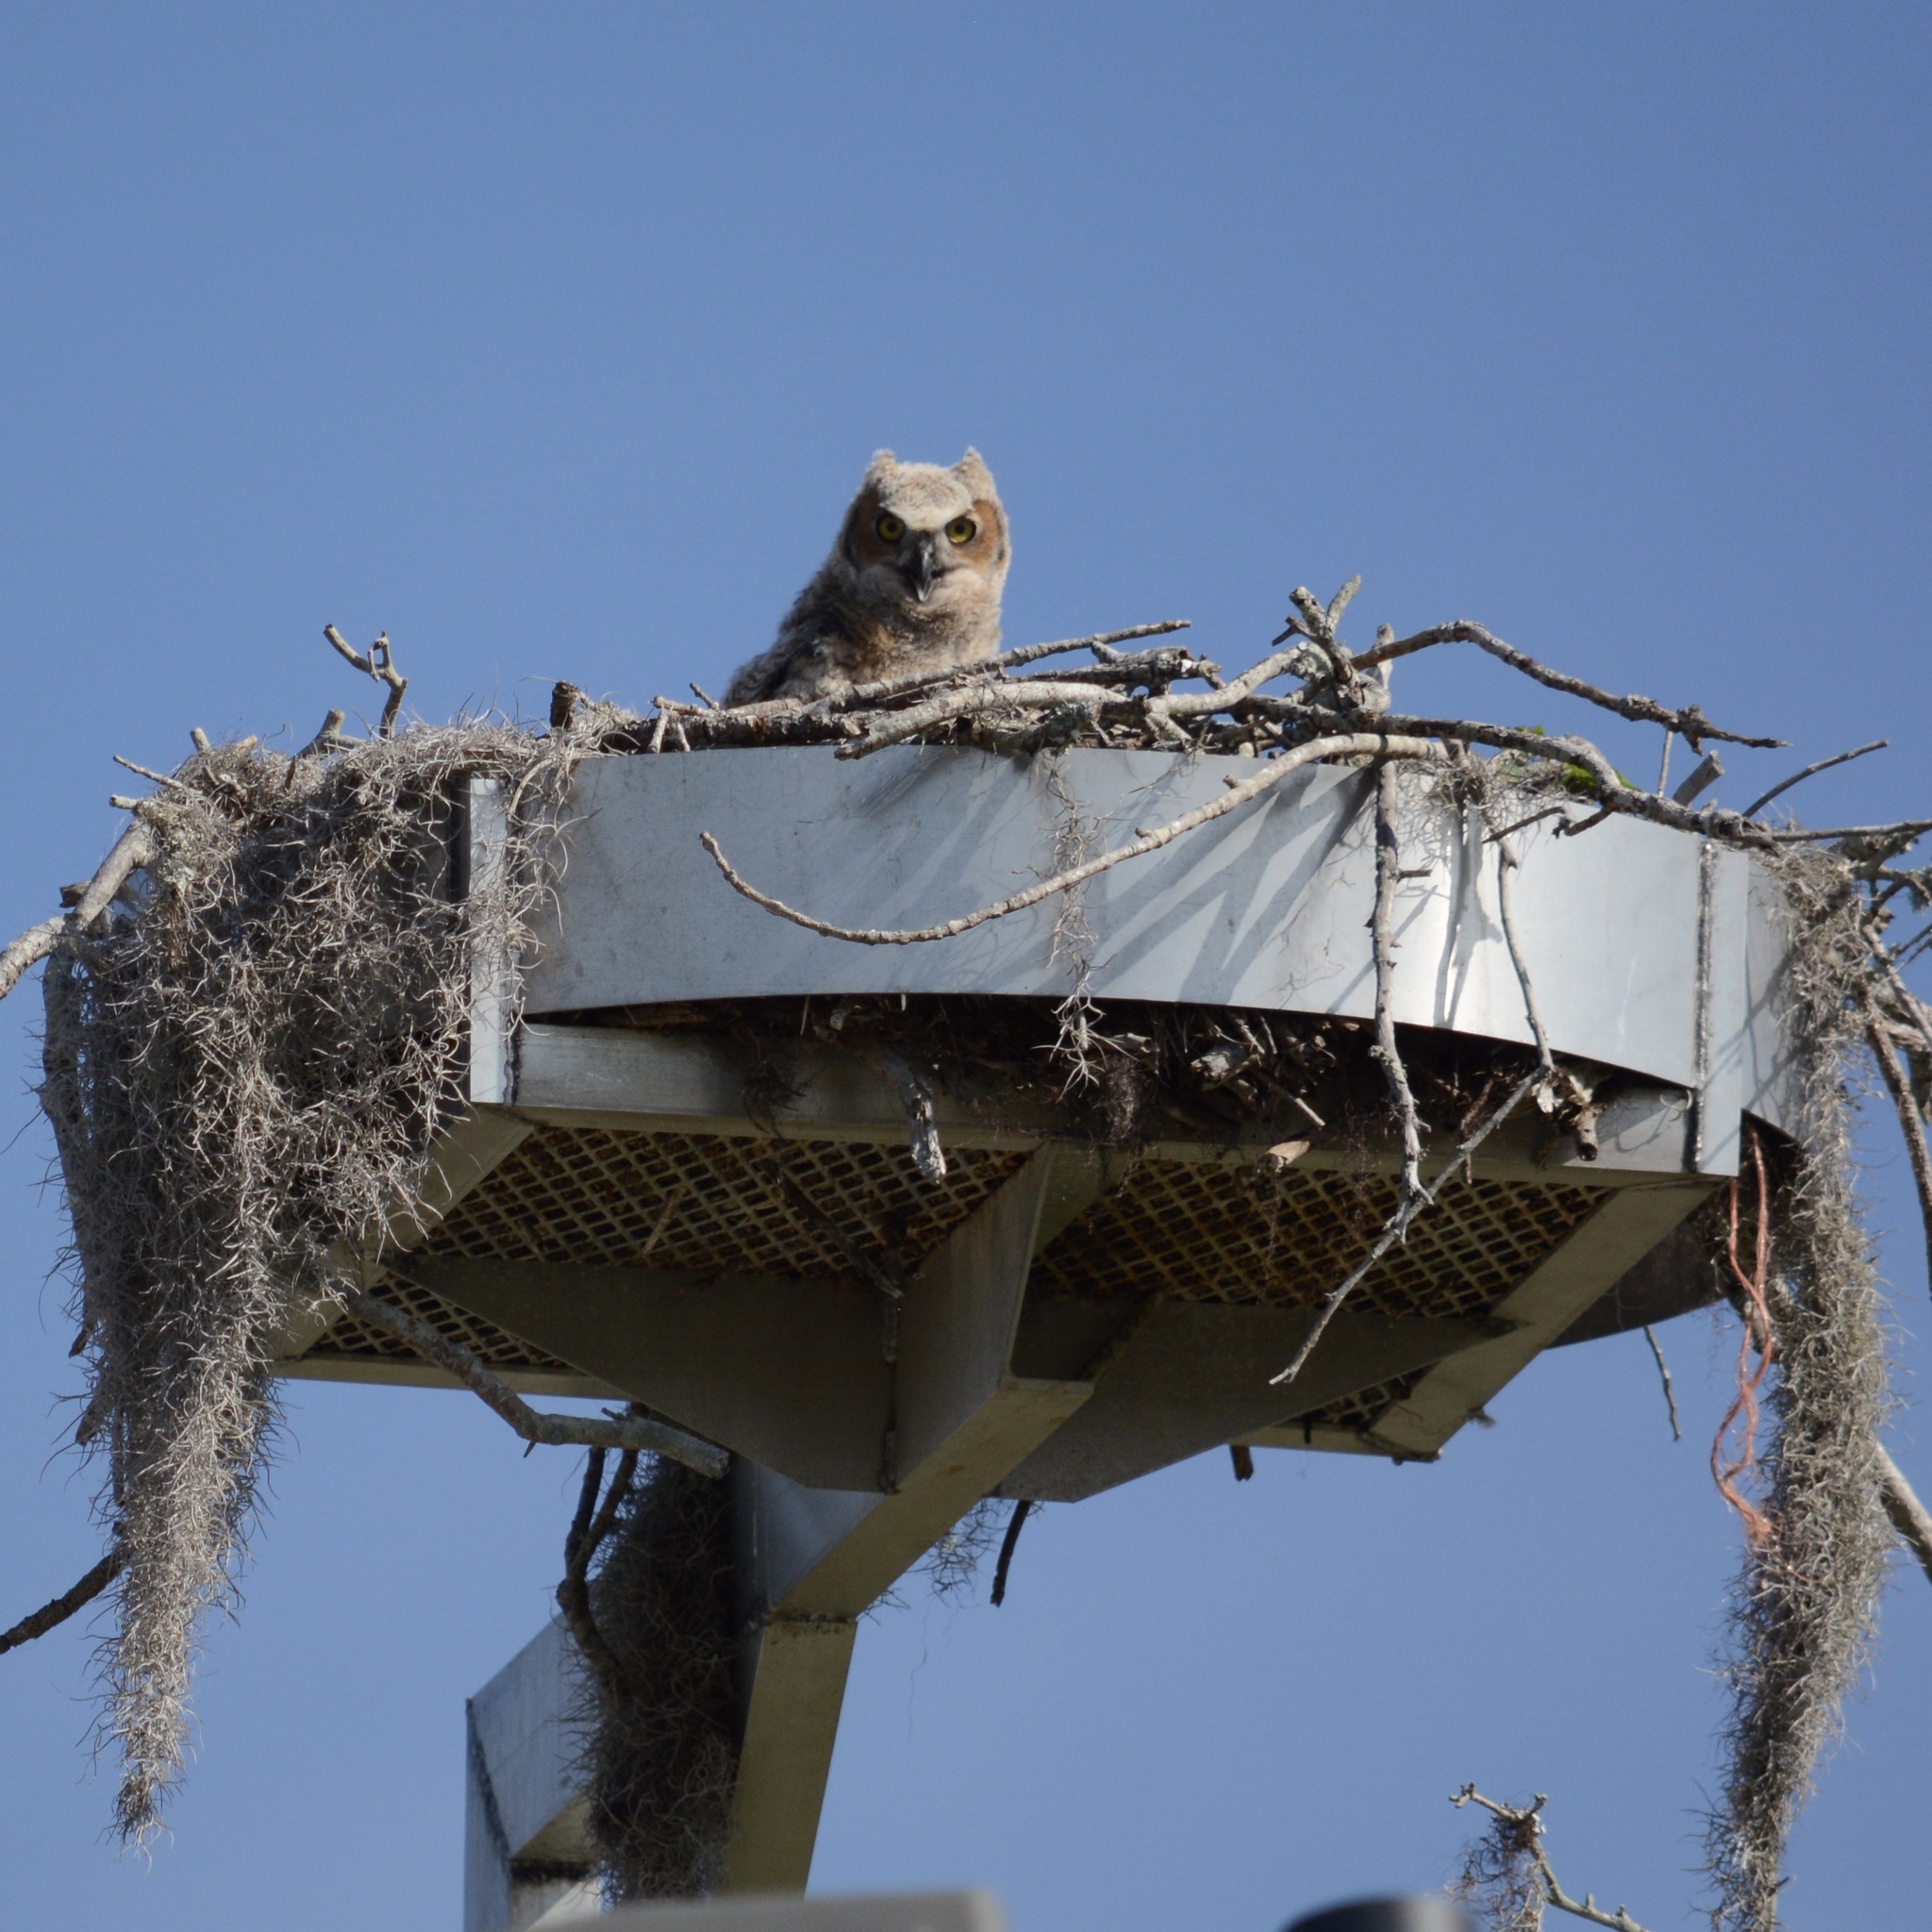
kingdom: Animalia
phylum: Chordata
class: Aves
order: Strigiformes
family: Strigidae
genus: Bubo
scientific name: Bubo virginianus
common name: Great horned owl
